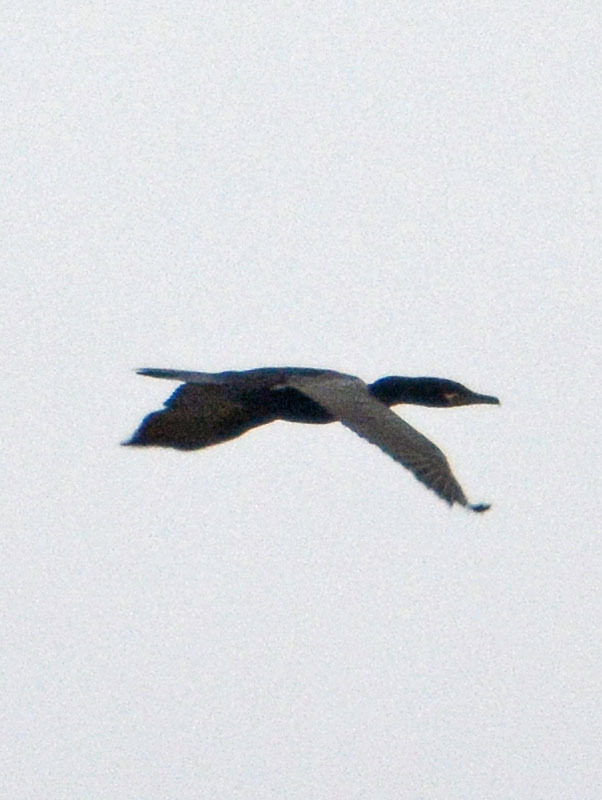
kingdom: Animalia
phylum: Chordata
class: Aves
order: Suliformes
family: Phalacrocoracidae
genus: Phalacrocorax
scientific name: Phalacrocorax brasilianus
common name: Neotropic cormorant
